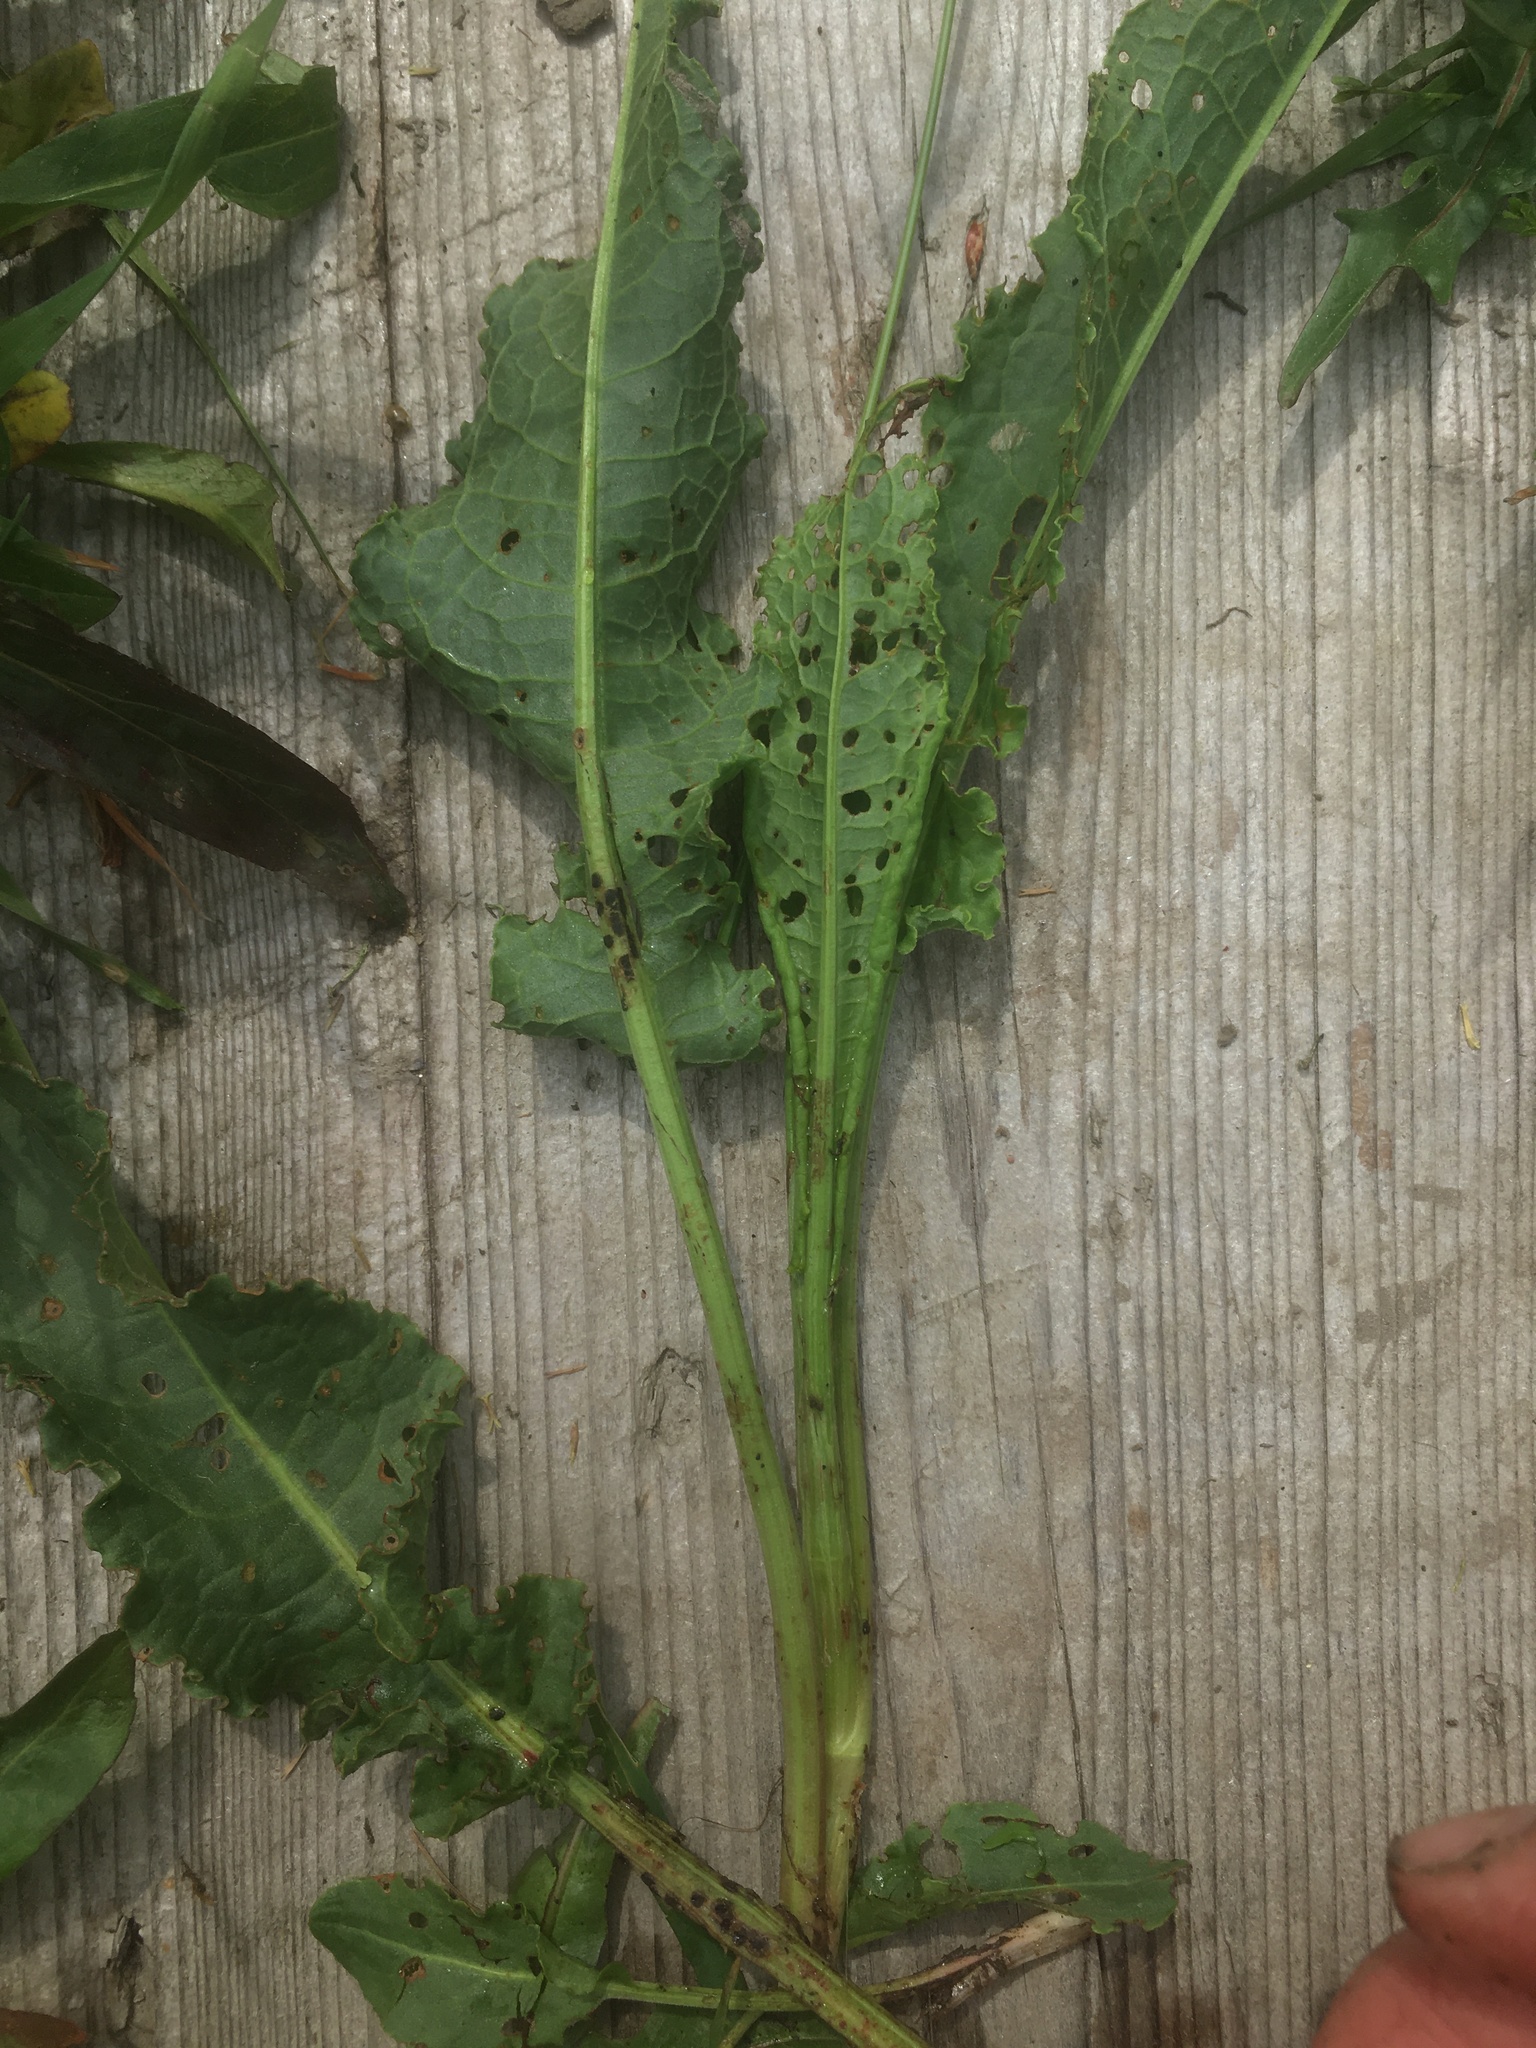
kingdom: Plantae
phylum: Tracheophyta
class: Magnoliopsida
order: Caryophyllales
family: Polygonaceae
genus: Rumex
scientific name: Rumex crispus
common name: Curled dock
